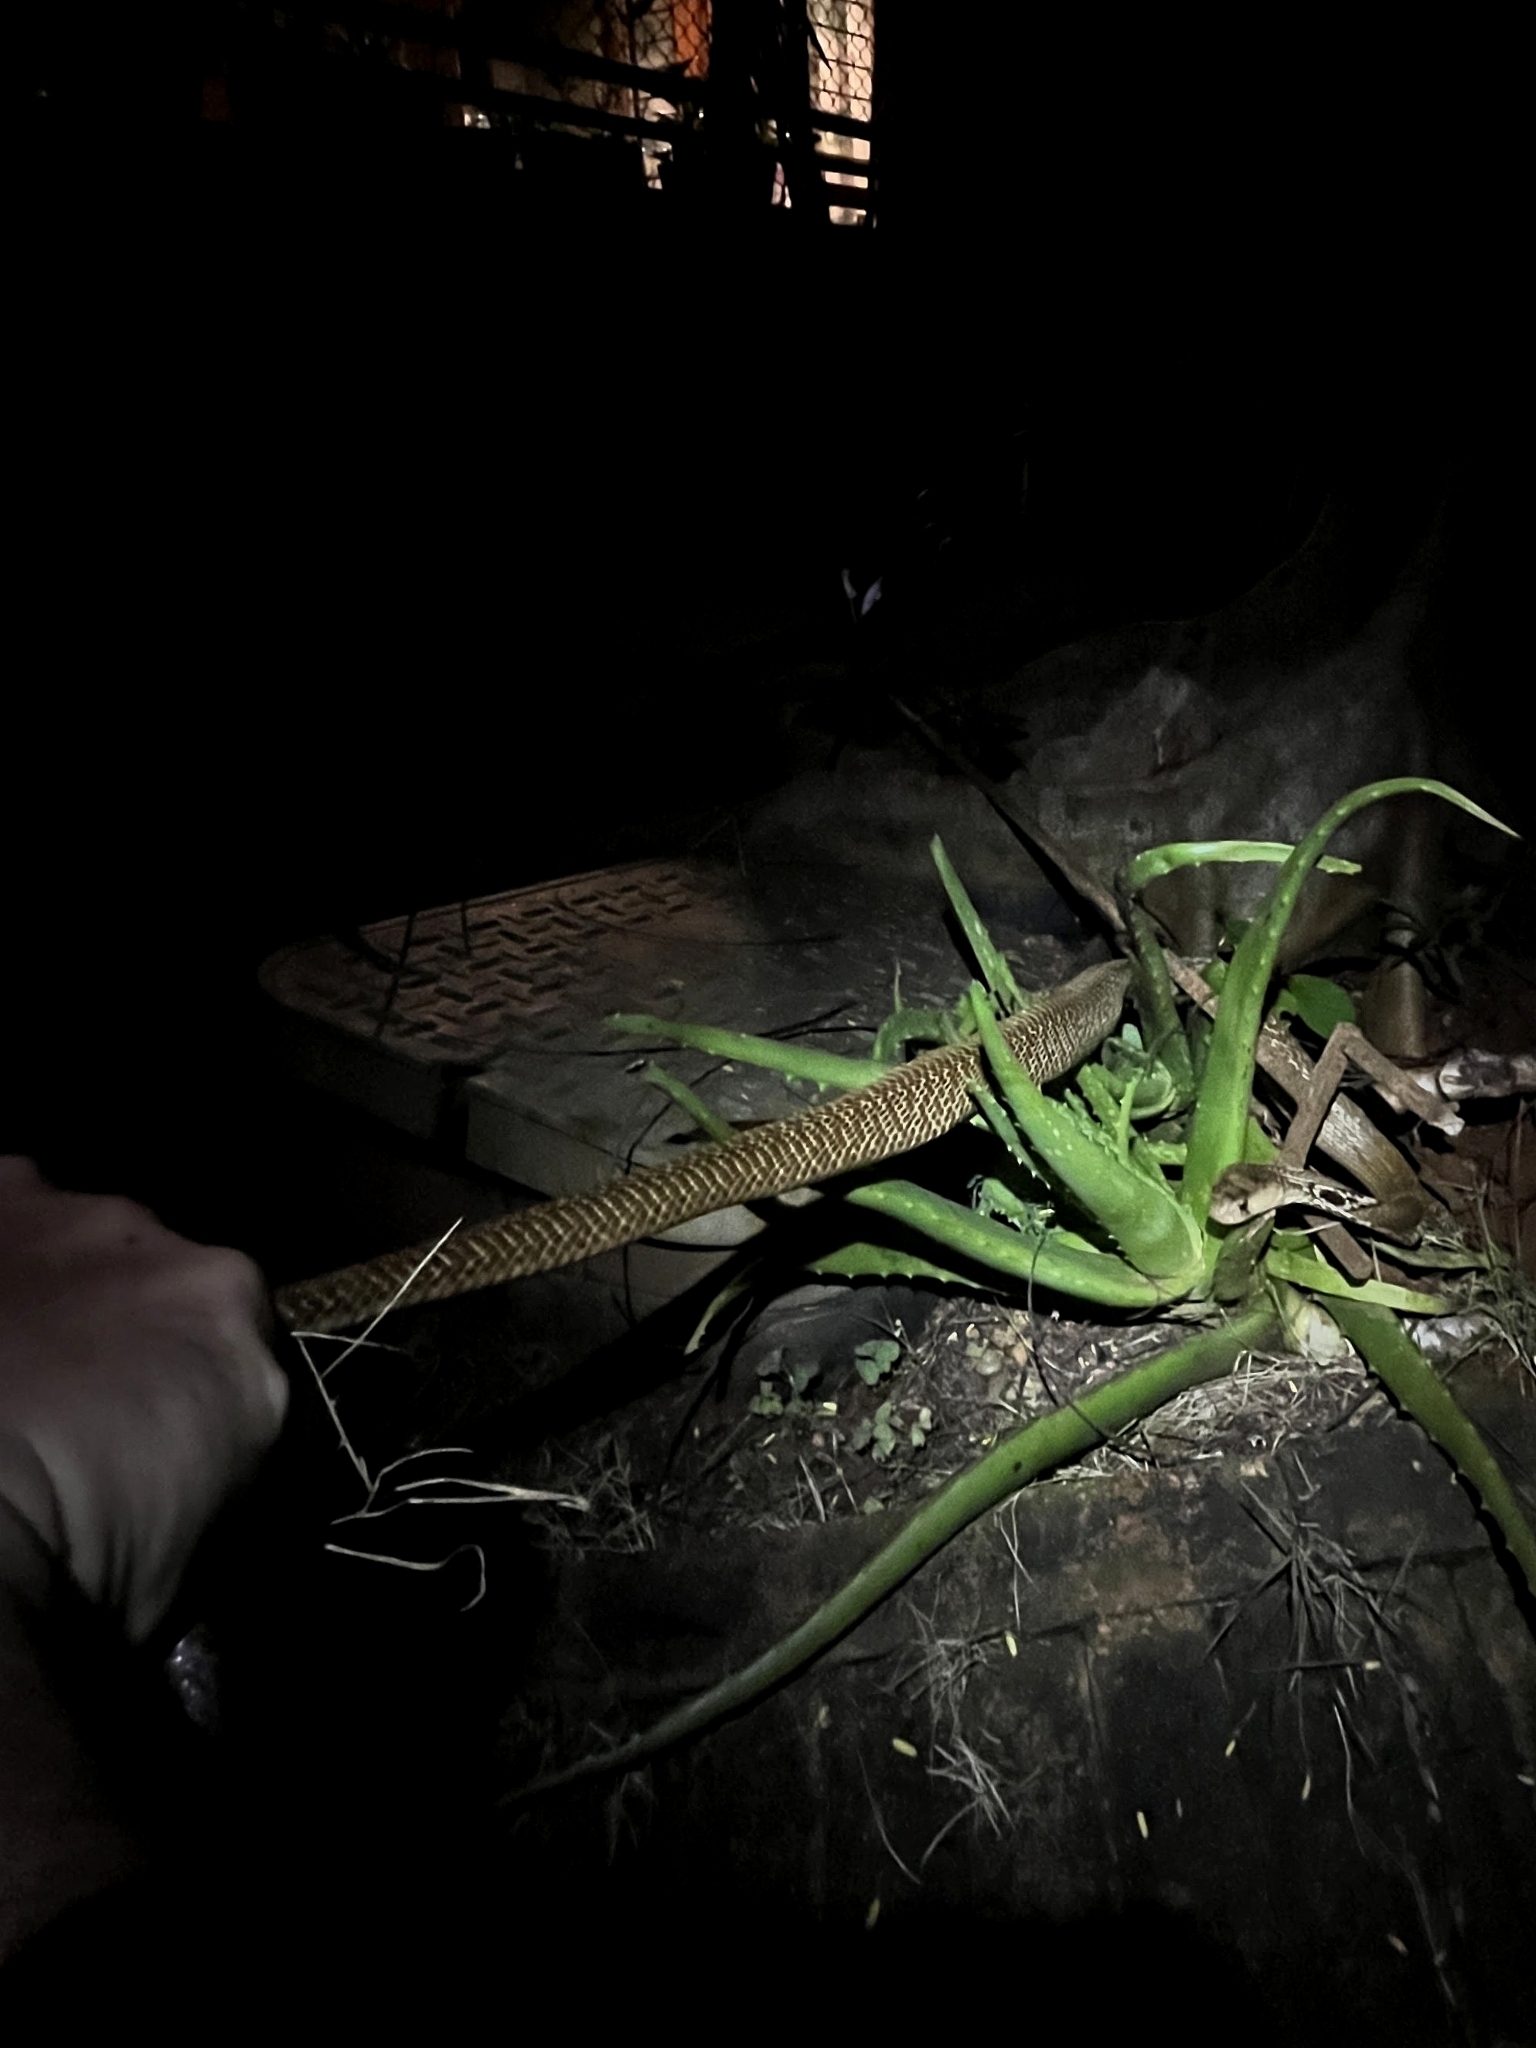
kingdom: Animalia
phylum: Chordata
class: Squamata
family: Elapidae
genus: Naja
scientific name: Naja naja
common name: Indian cobra
